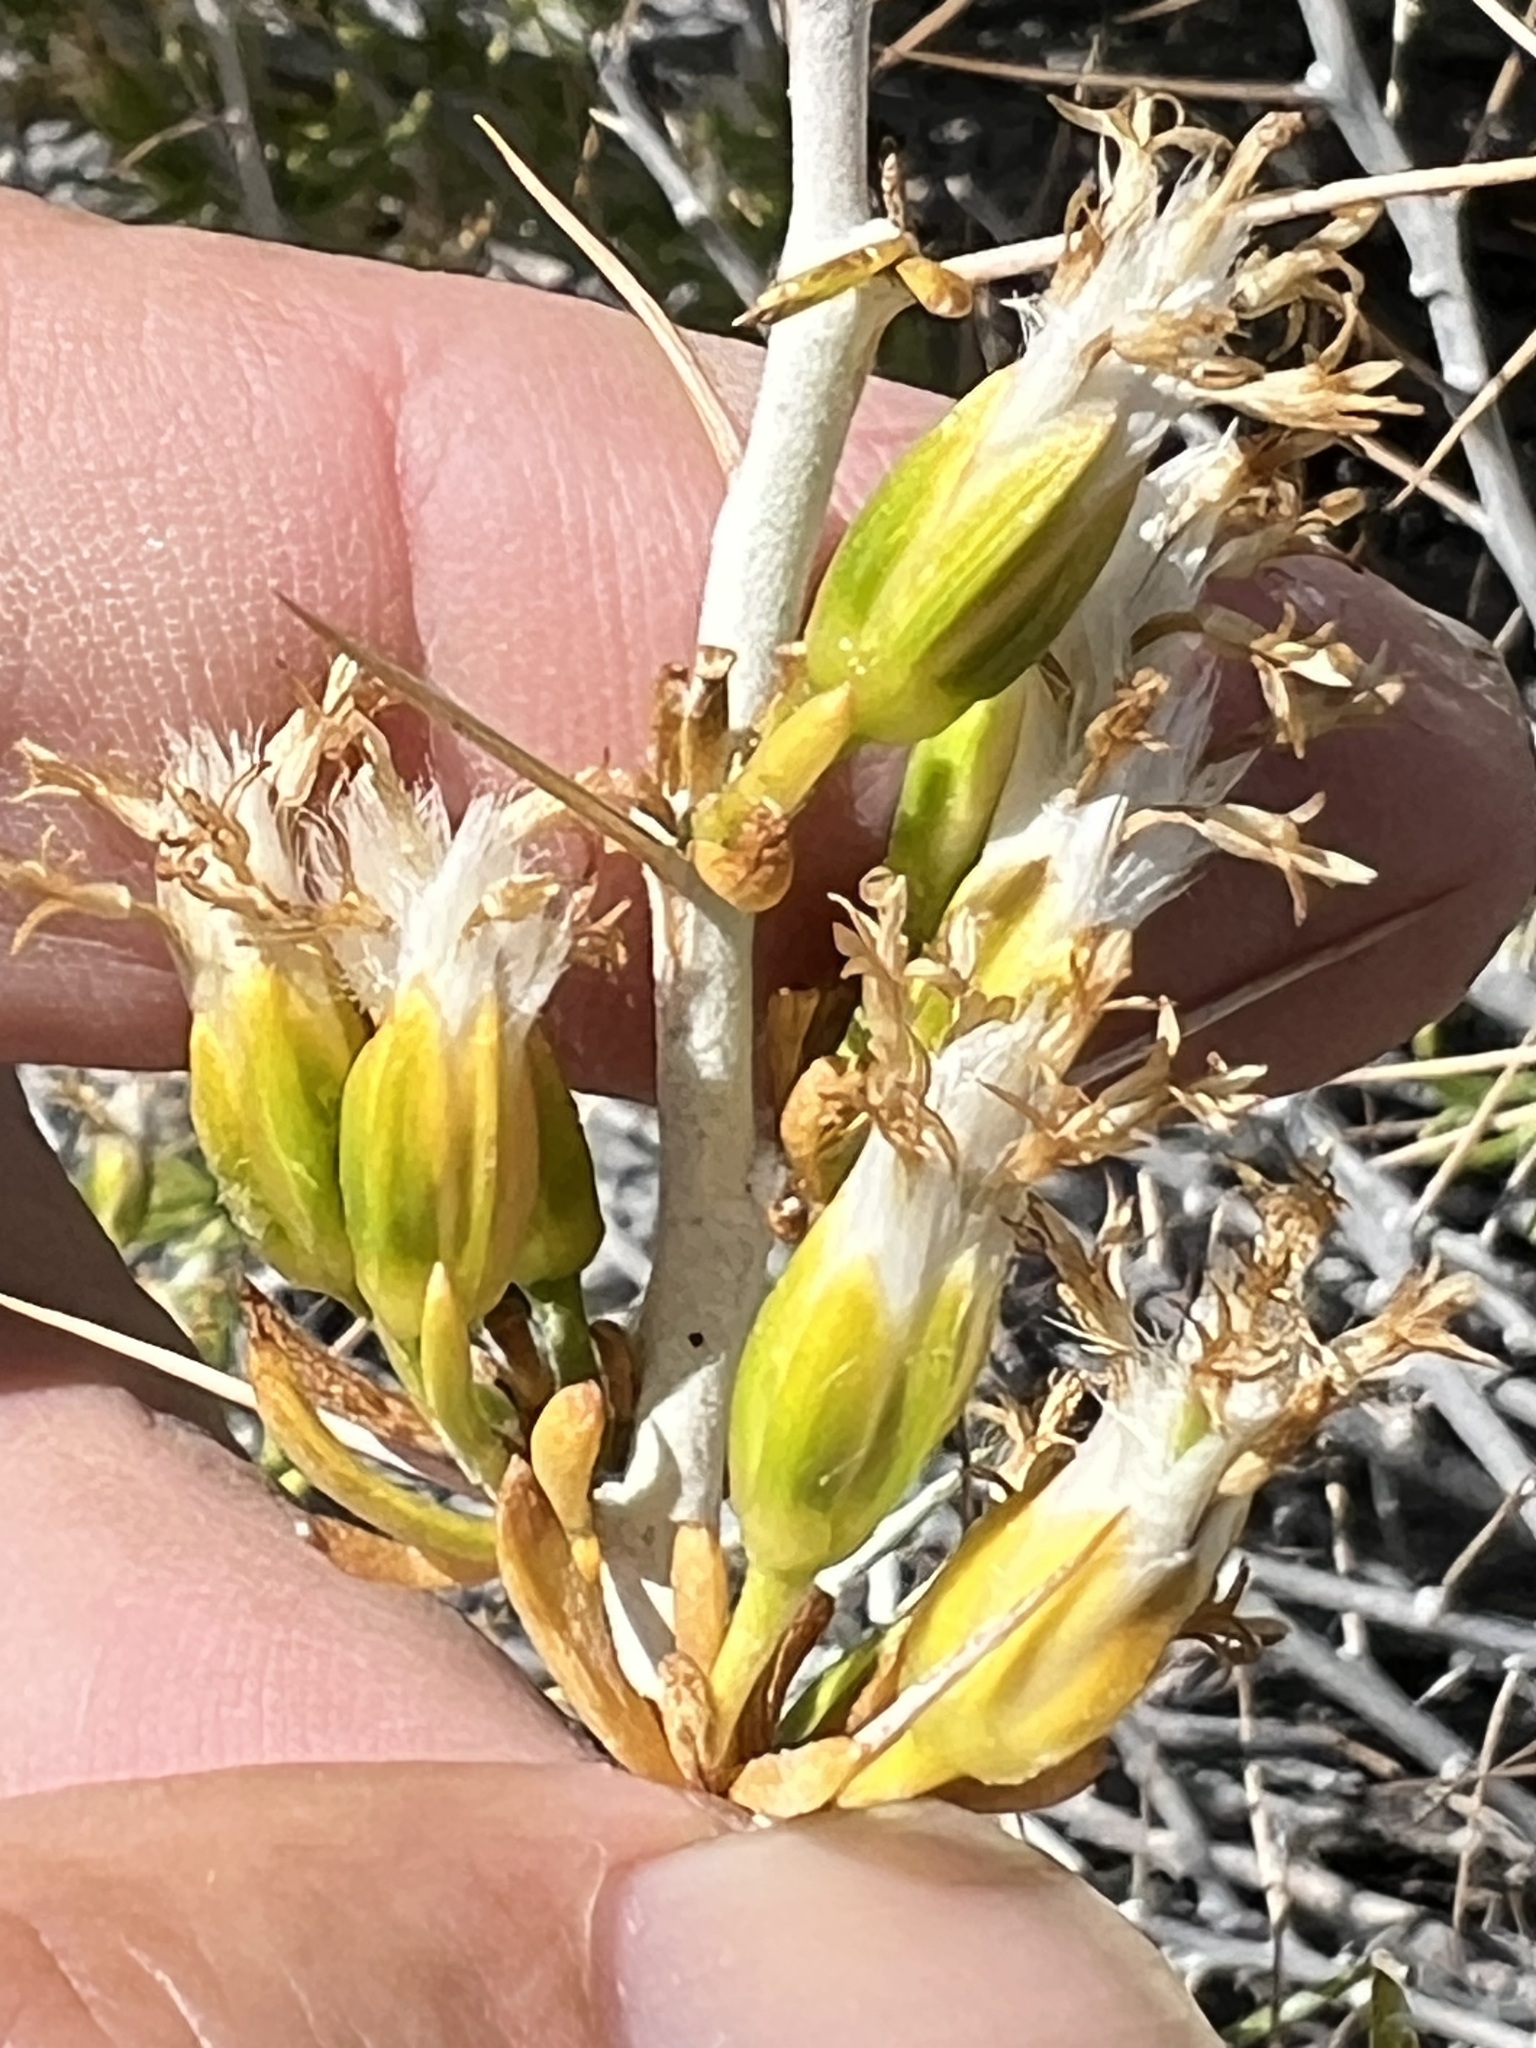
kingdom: Plantae
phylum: Tracheophyta
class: Magnoliopsida
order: Asterales
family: Asteraceae
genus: Tetradymia
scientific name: Tetradymia axillaris
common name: Long-spine horsebrush
